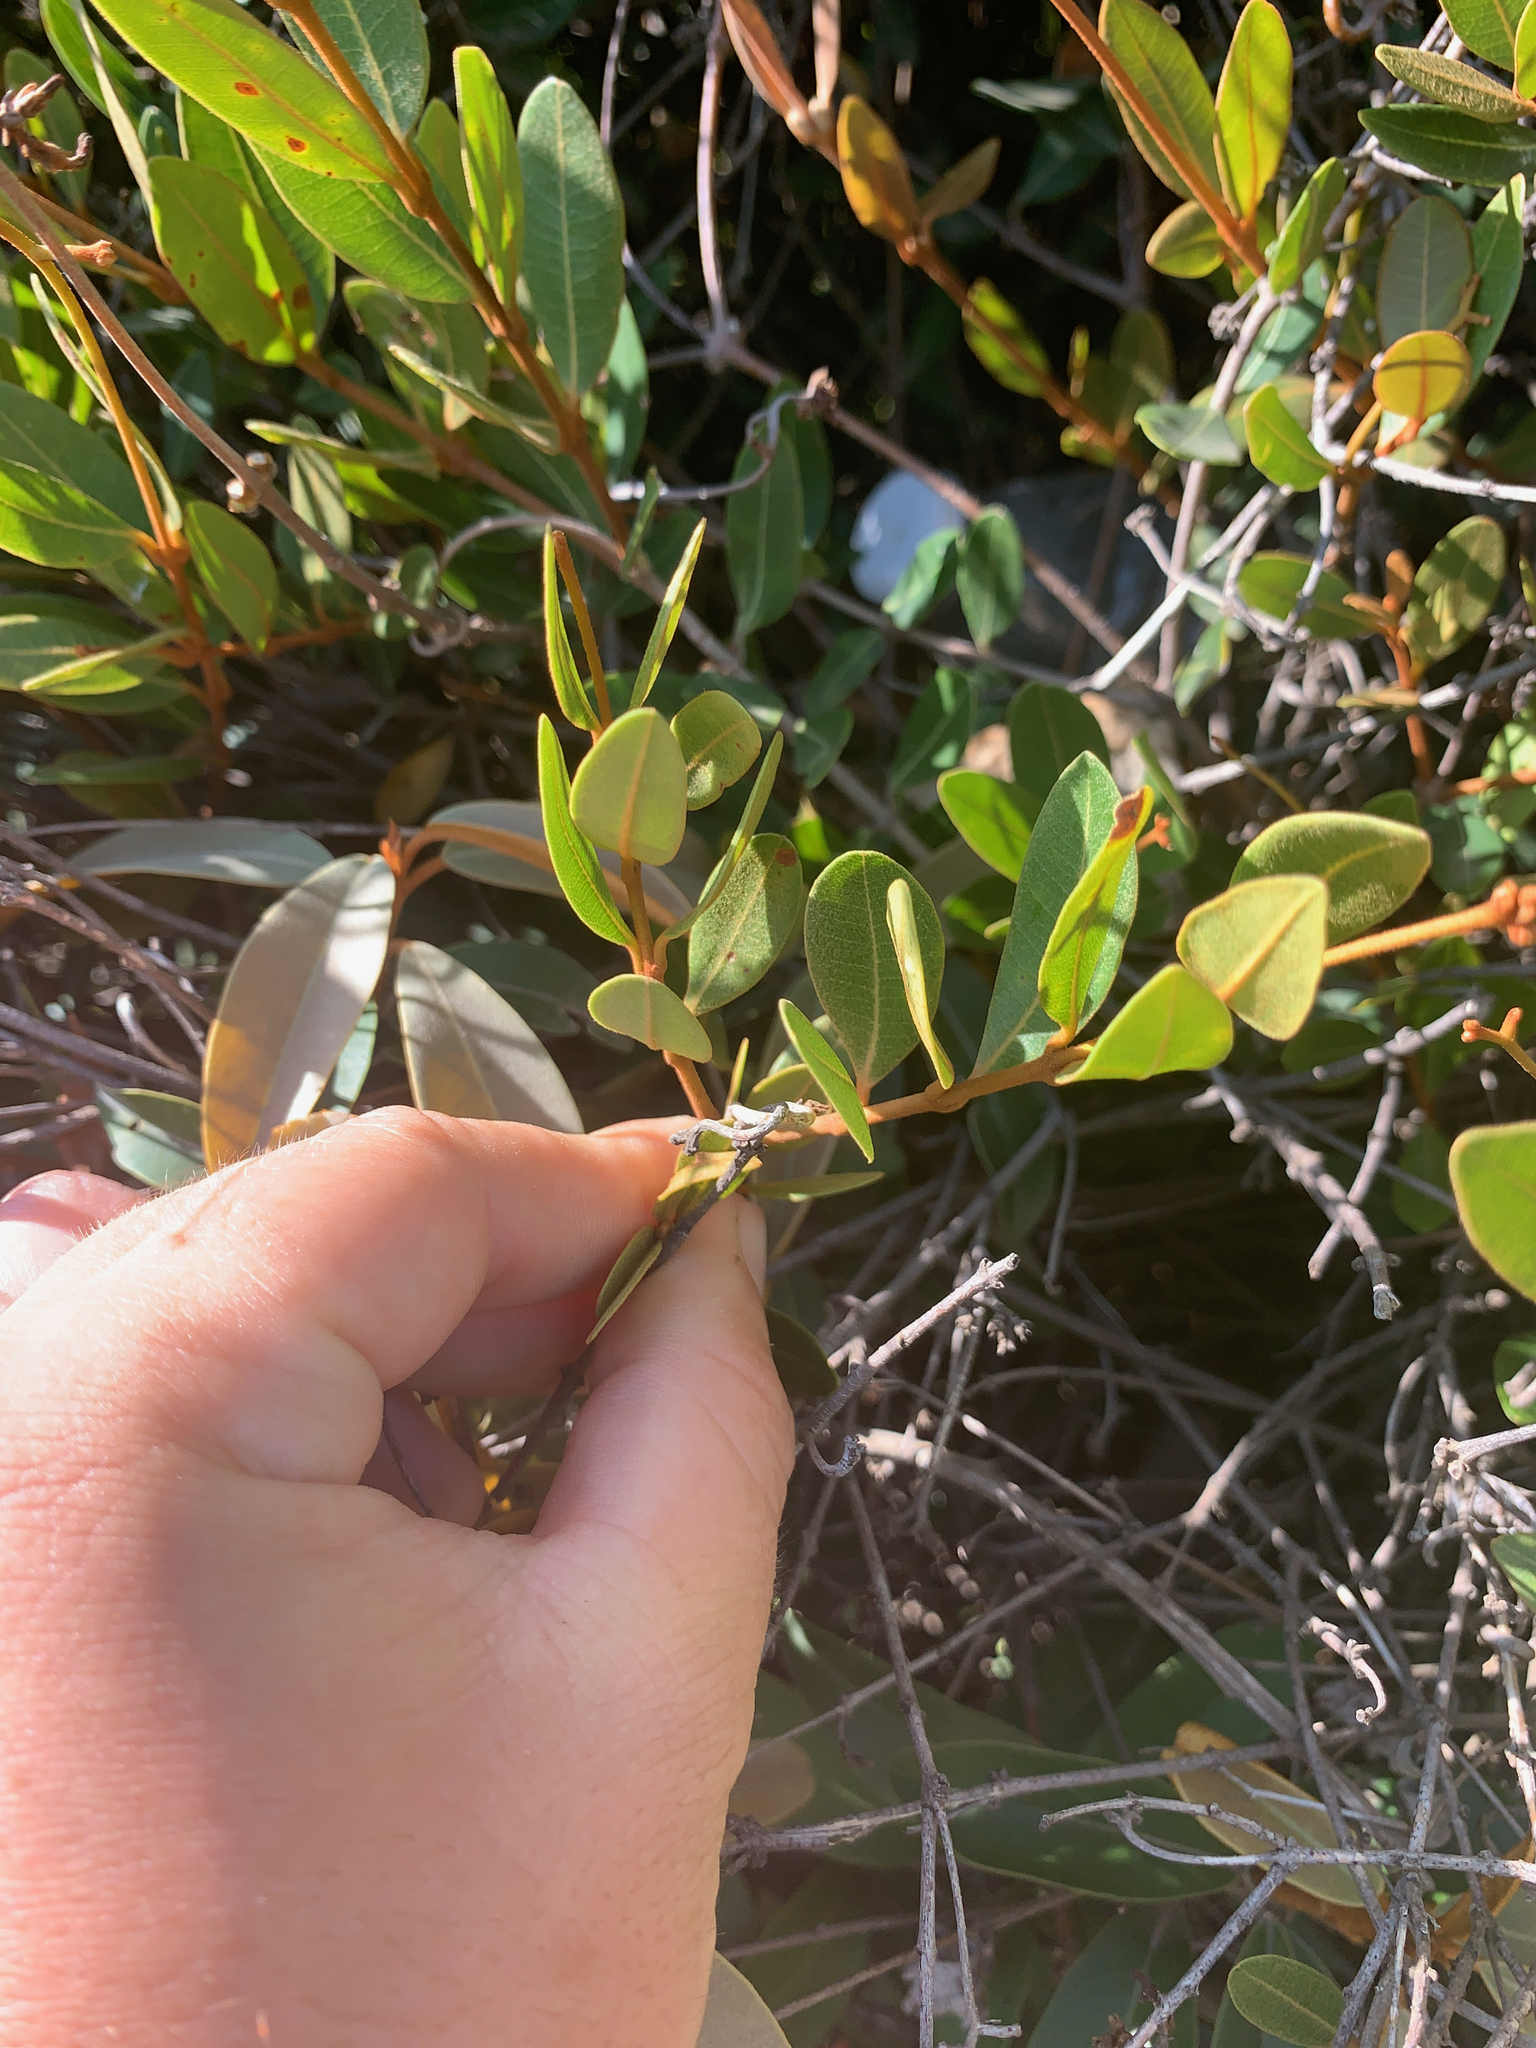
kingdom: Plantae
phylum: Tracheophyta
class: Magnoliopsida
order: Gentianales
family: Apocynaceae
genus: Ancylobothrys
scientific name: Ancylobothrys capensis
